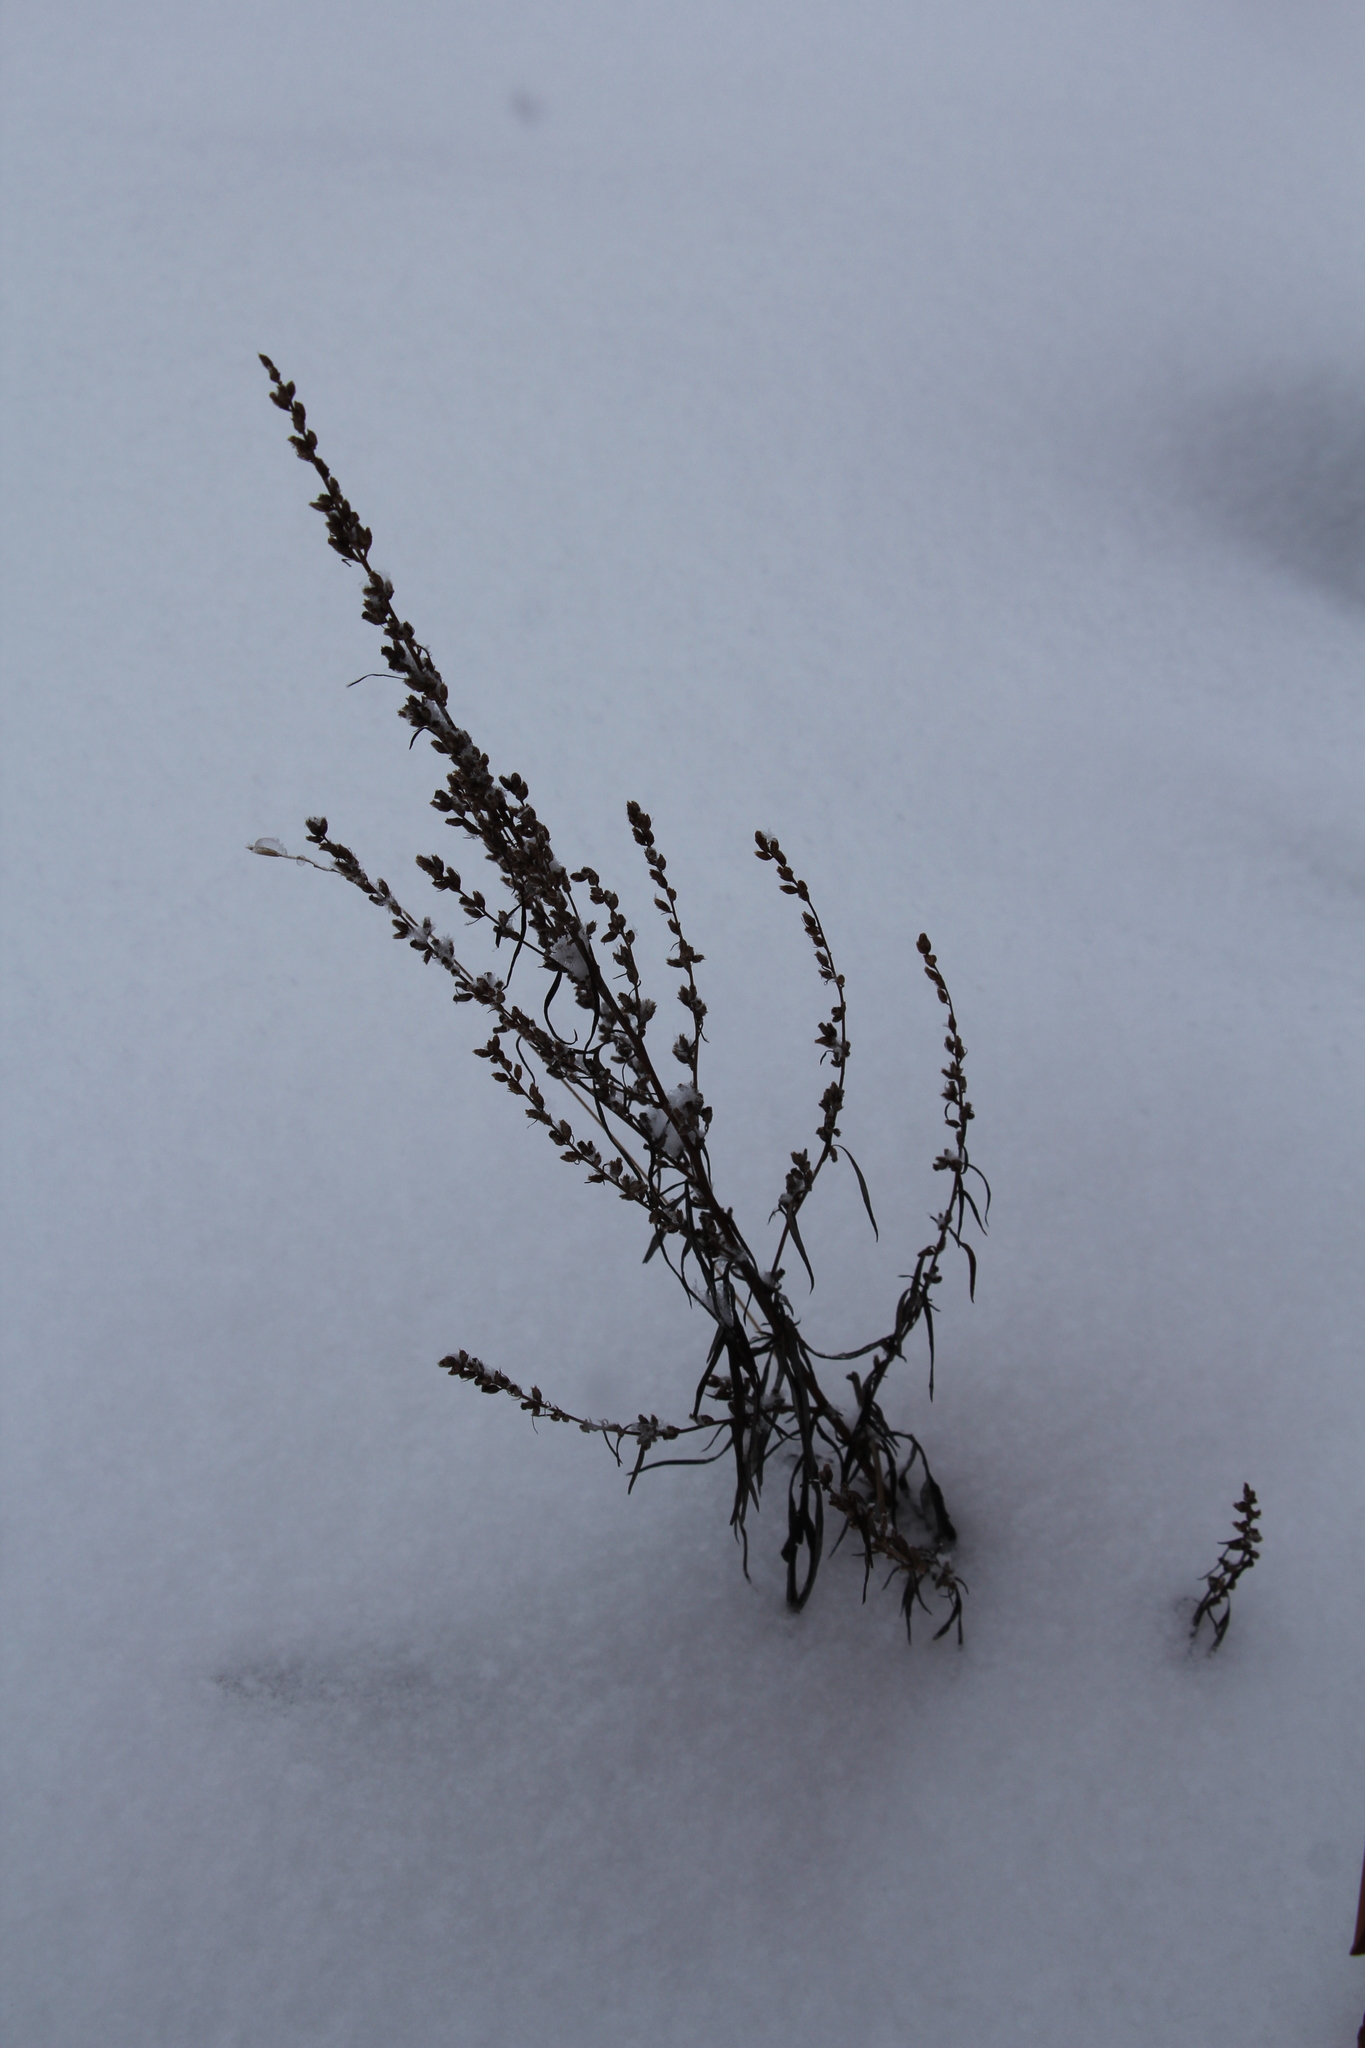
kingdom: Plantae
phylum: Tracheophyta
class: Magnoliopsida
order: Asterales
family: Asteraceae
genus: Artemisia
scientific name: Artemisia vulgaris
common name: Mugwort
